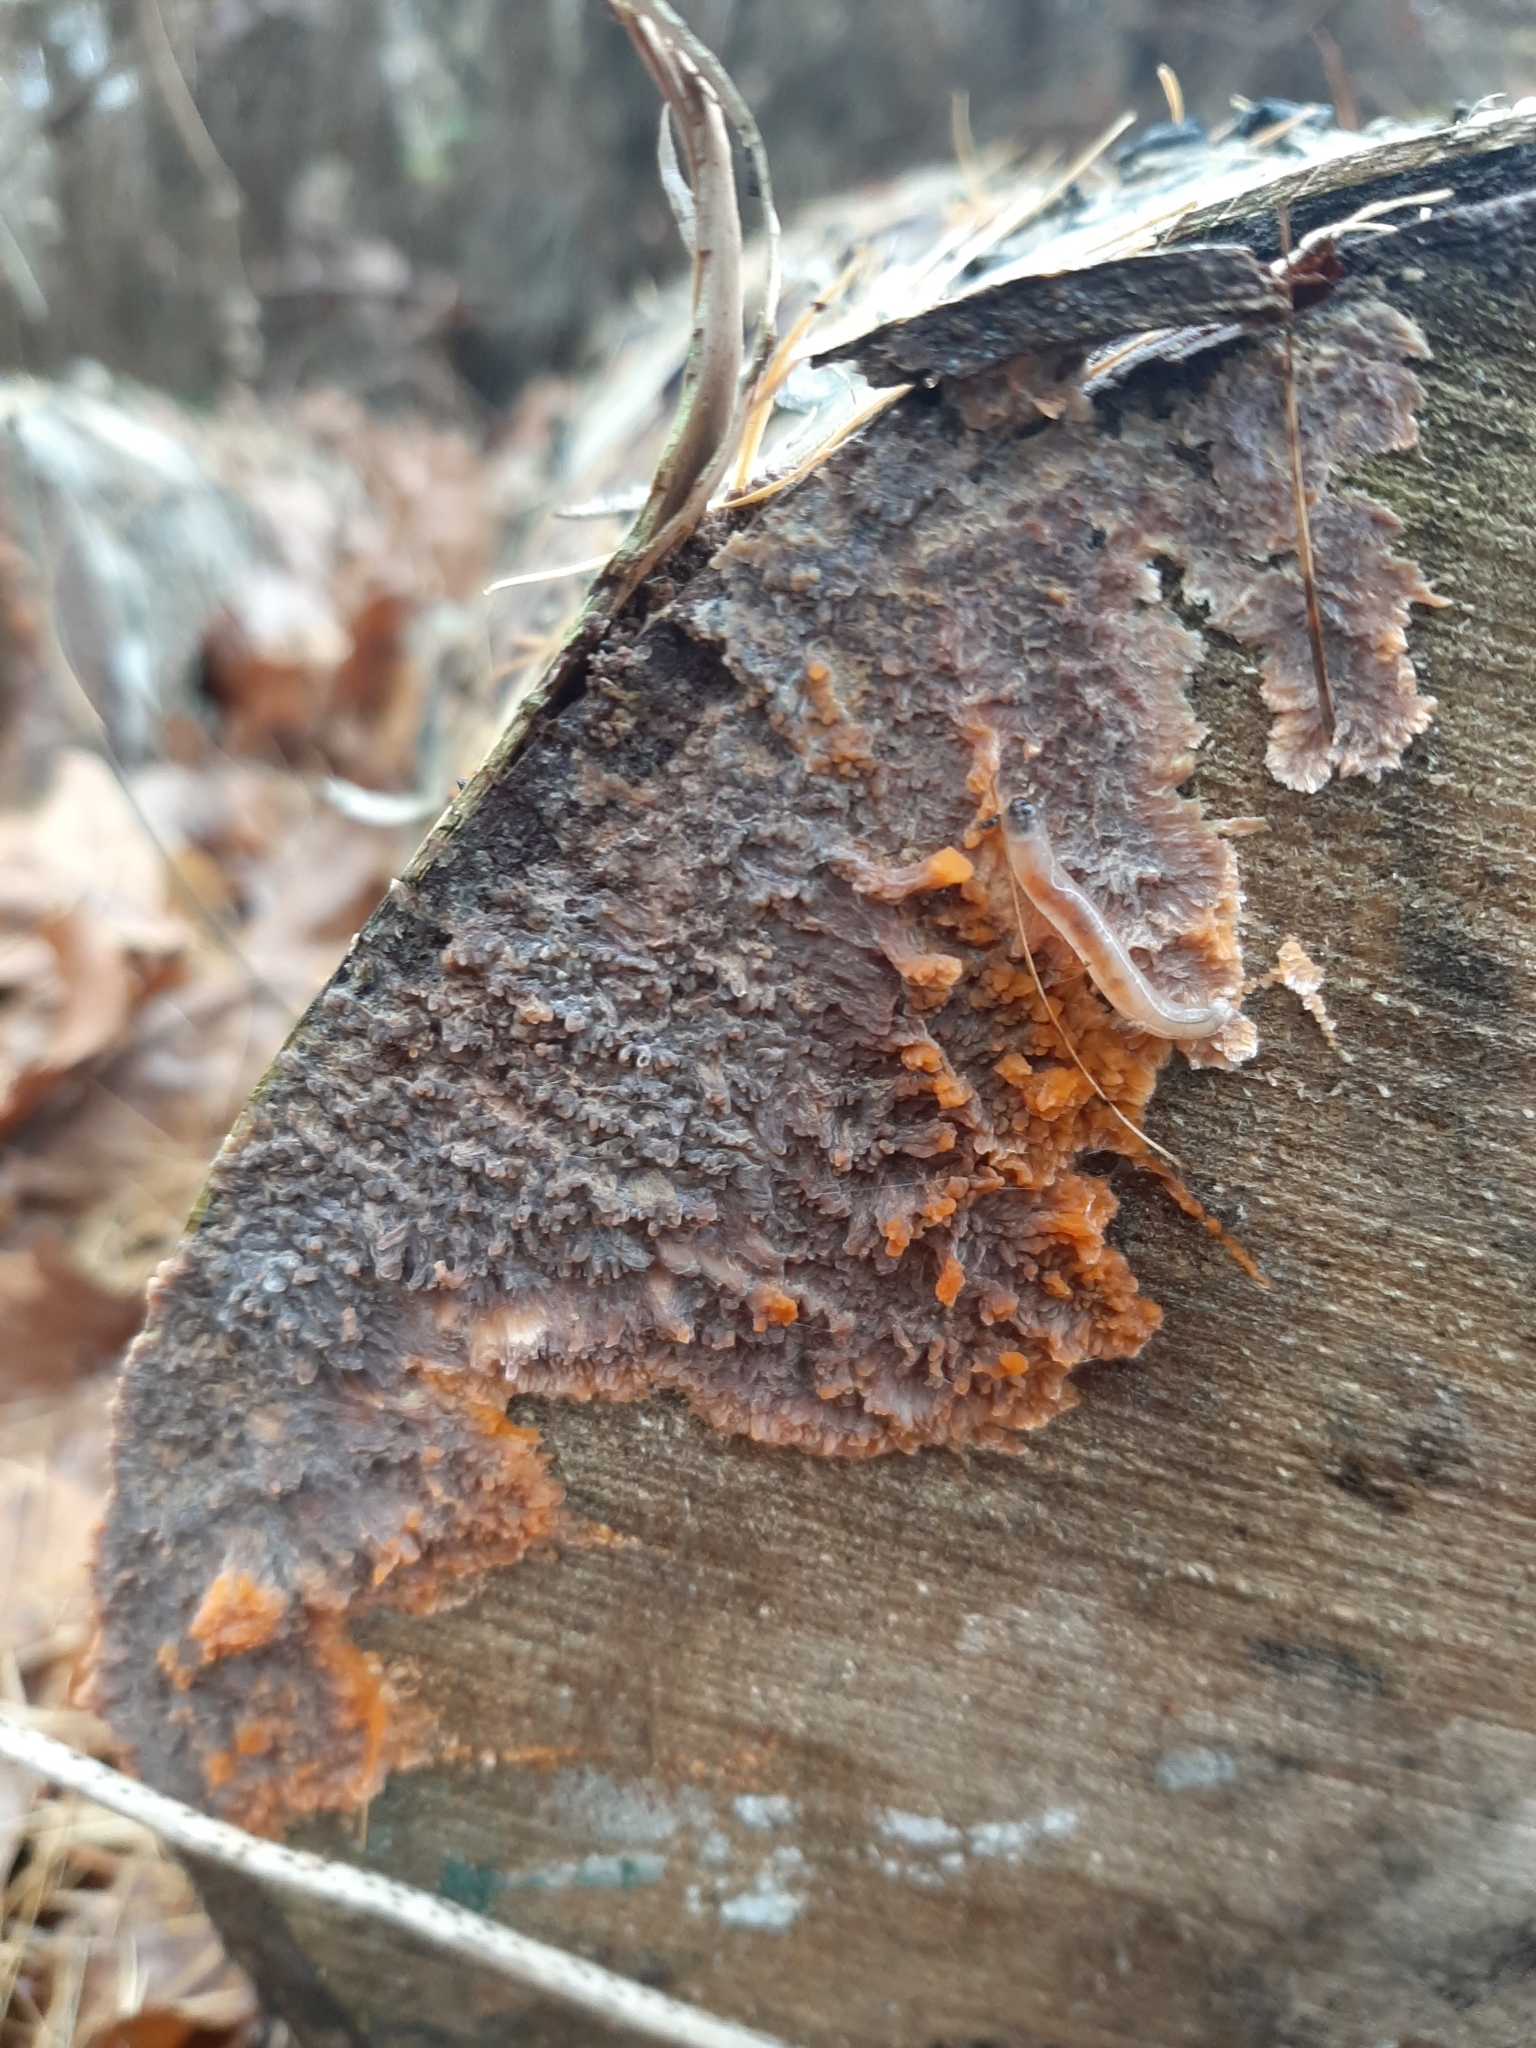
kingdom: Fungi
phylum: Basidiomycota
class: Agaricomycetes
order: Polyporales
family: Meruliaceae
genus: Phlebia
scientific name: Phlebia radiata
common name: Wrinkled crust
